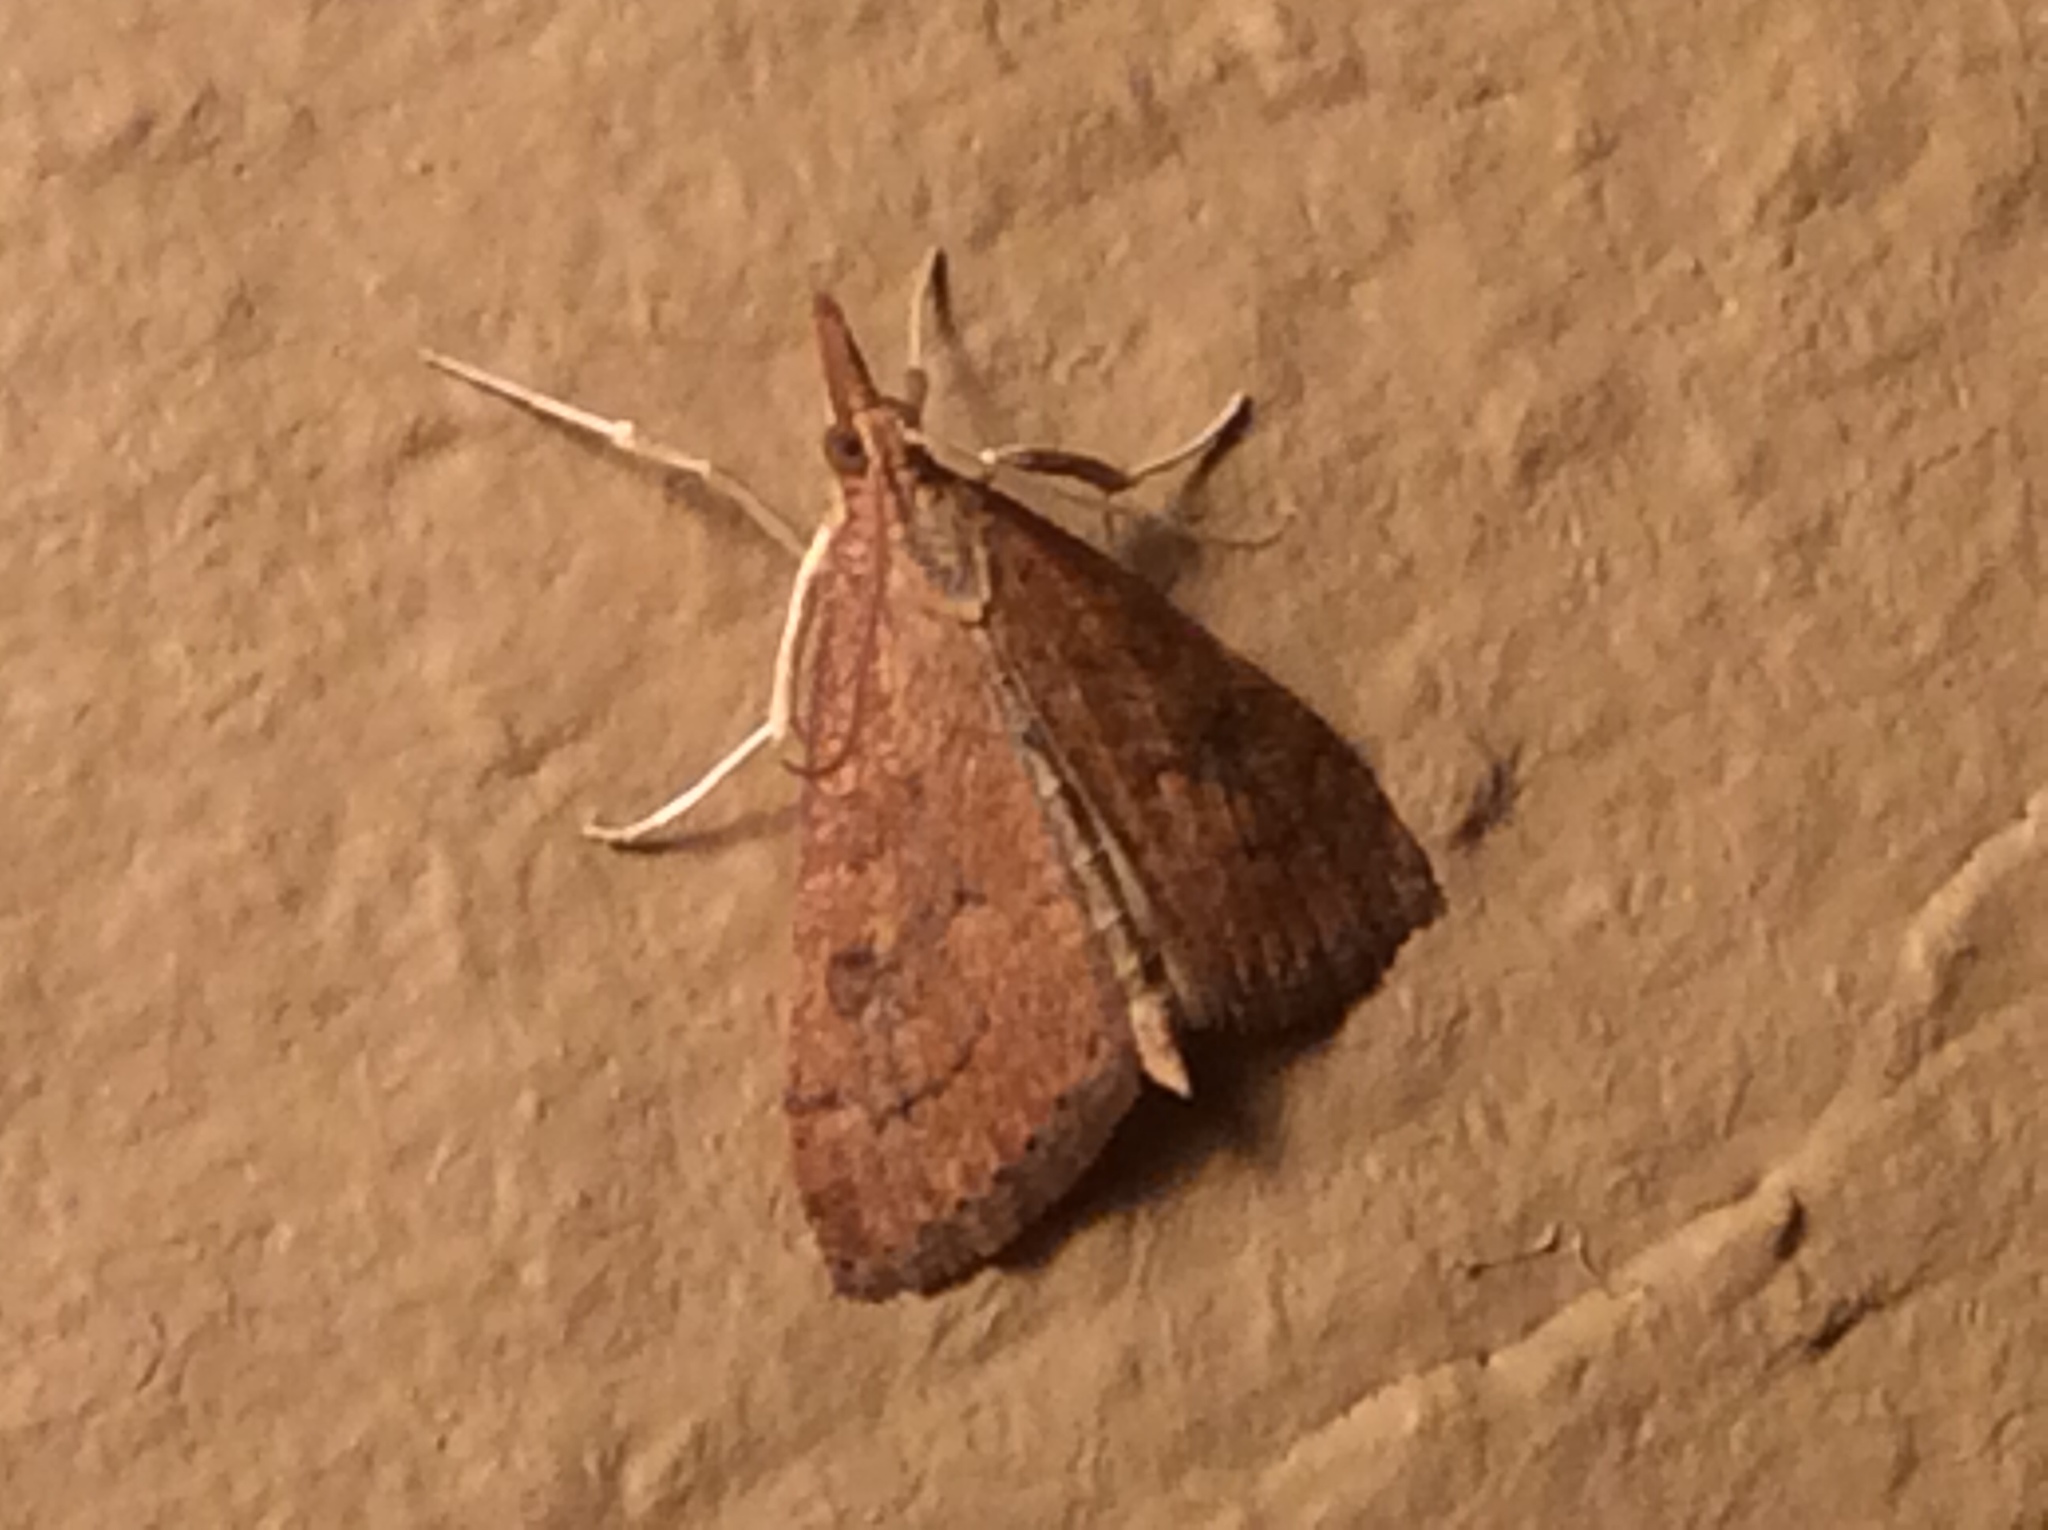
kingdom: Animalia
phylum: Arthropoda
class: Insecta
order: Lepidoptera
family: Crambidae
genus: Udea
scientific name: Udea rubigalis
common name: Celery leaftier moth
